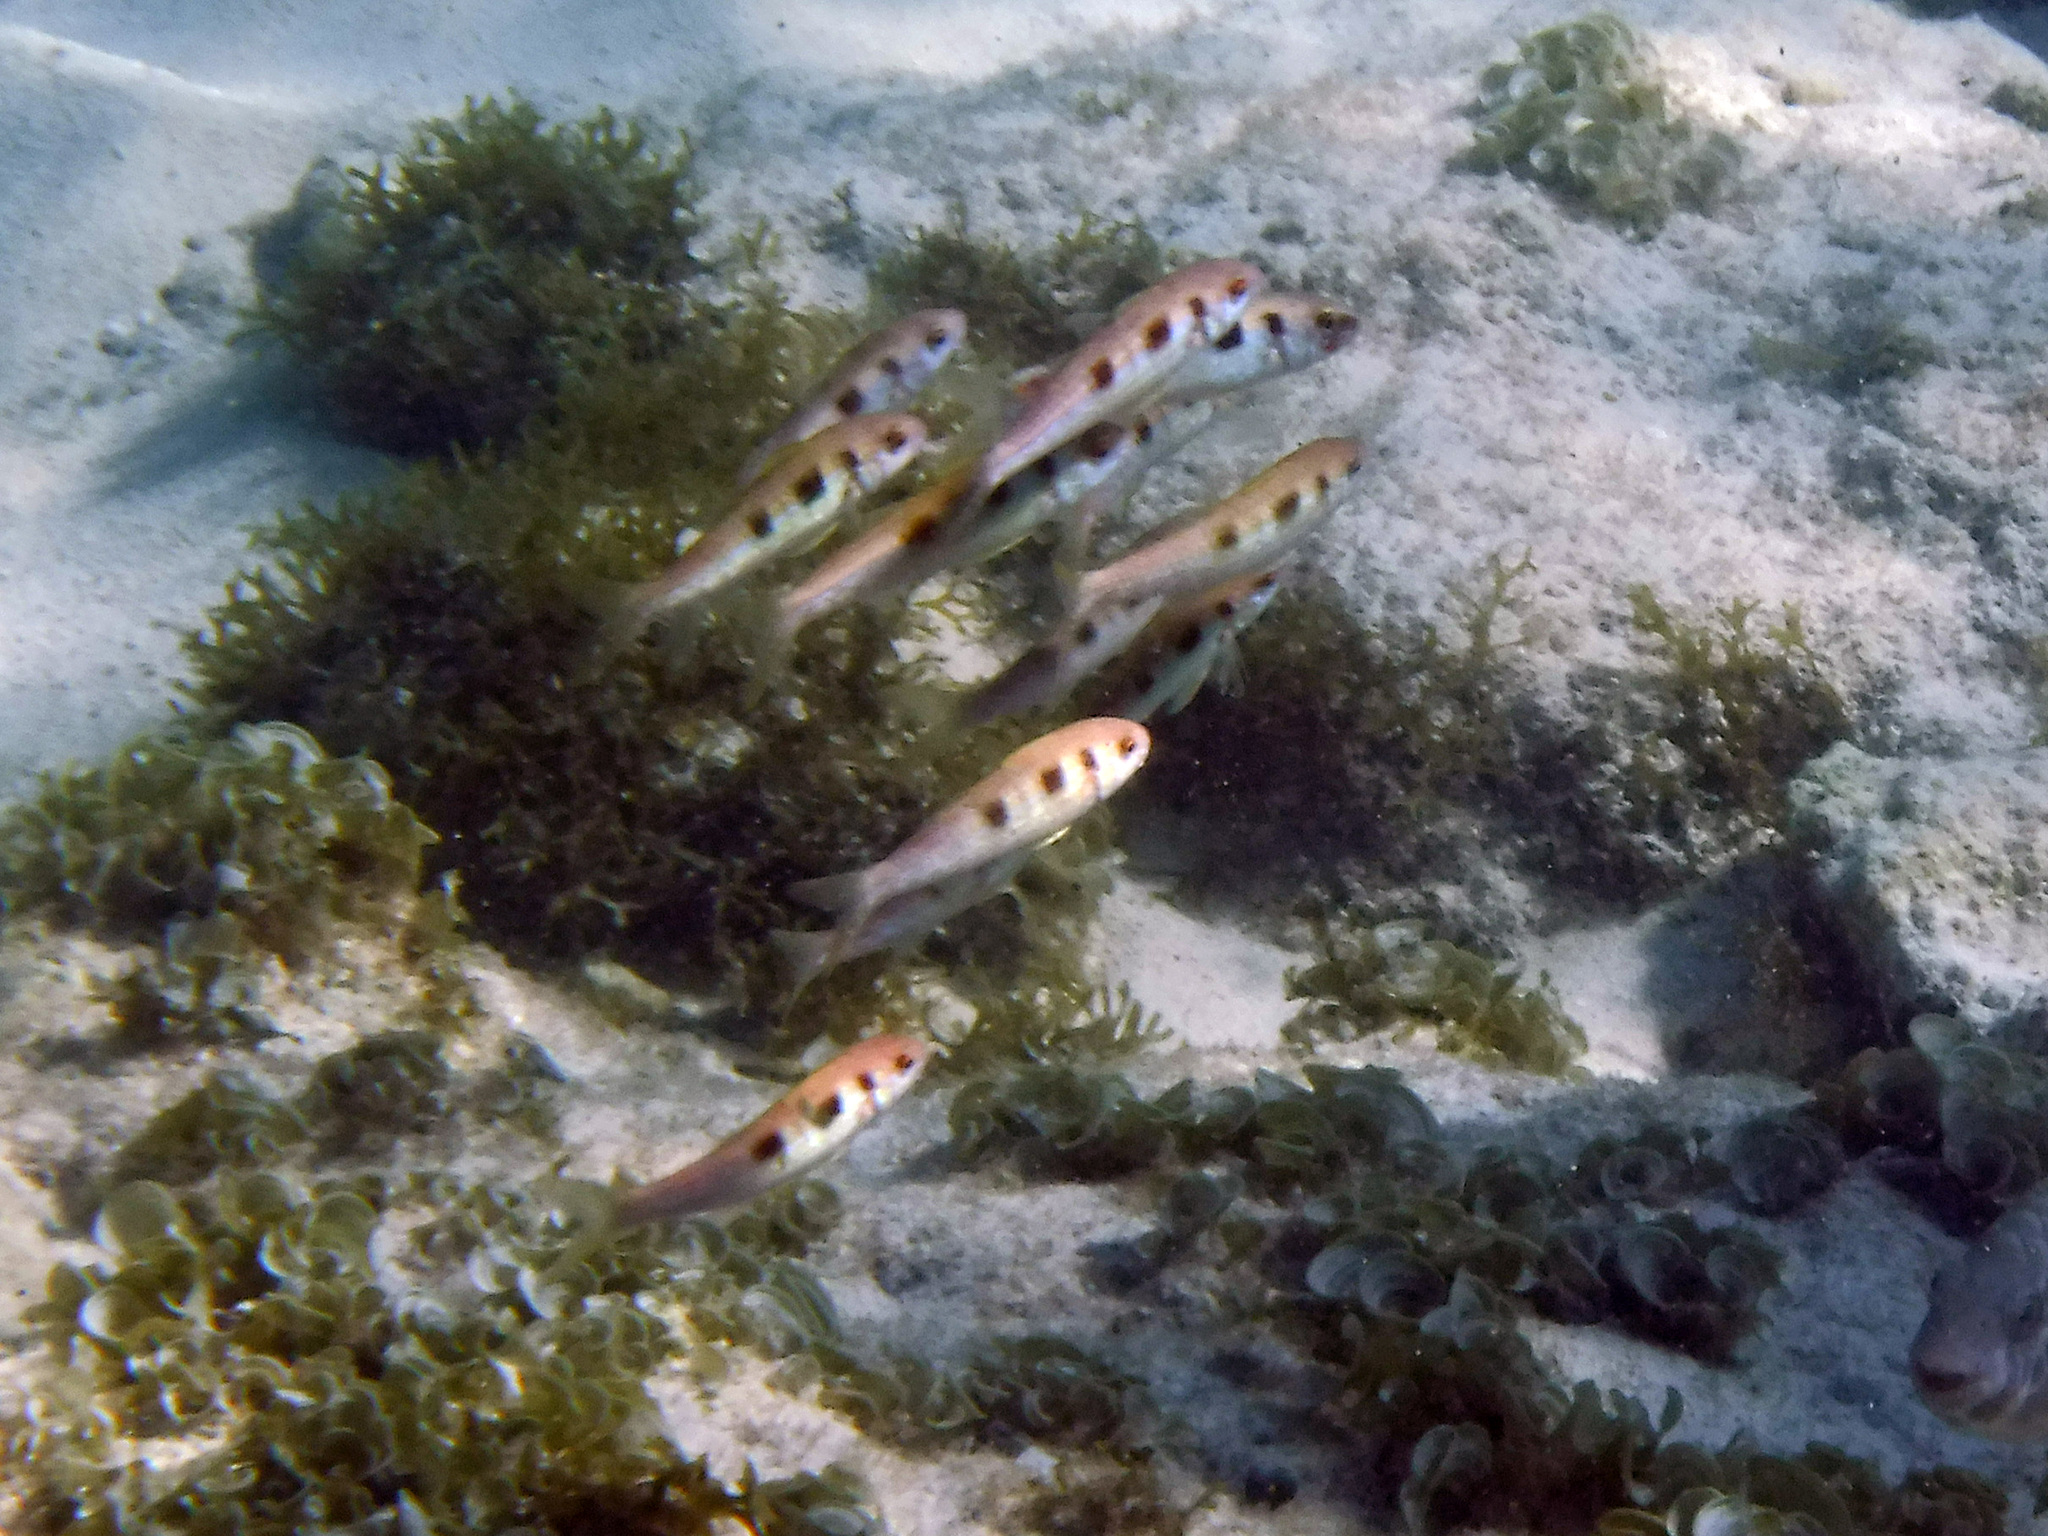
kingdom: Animalia
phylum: Chordata
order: Perciformes
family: Mullidae
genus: Pseudupeneus
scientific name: Pseudupeneus maculatus
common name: Spotted goatfish
